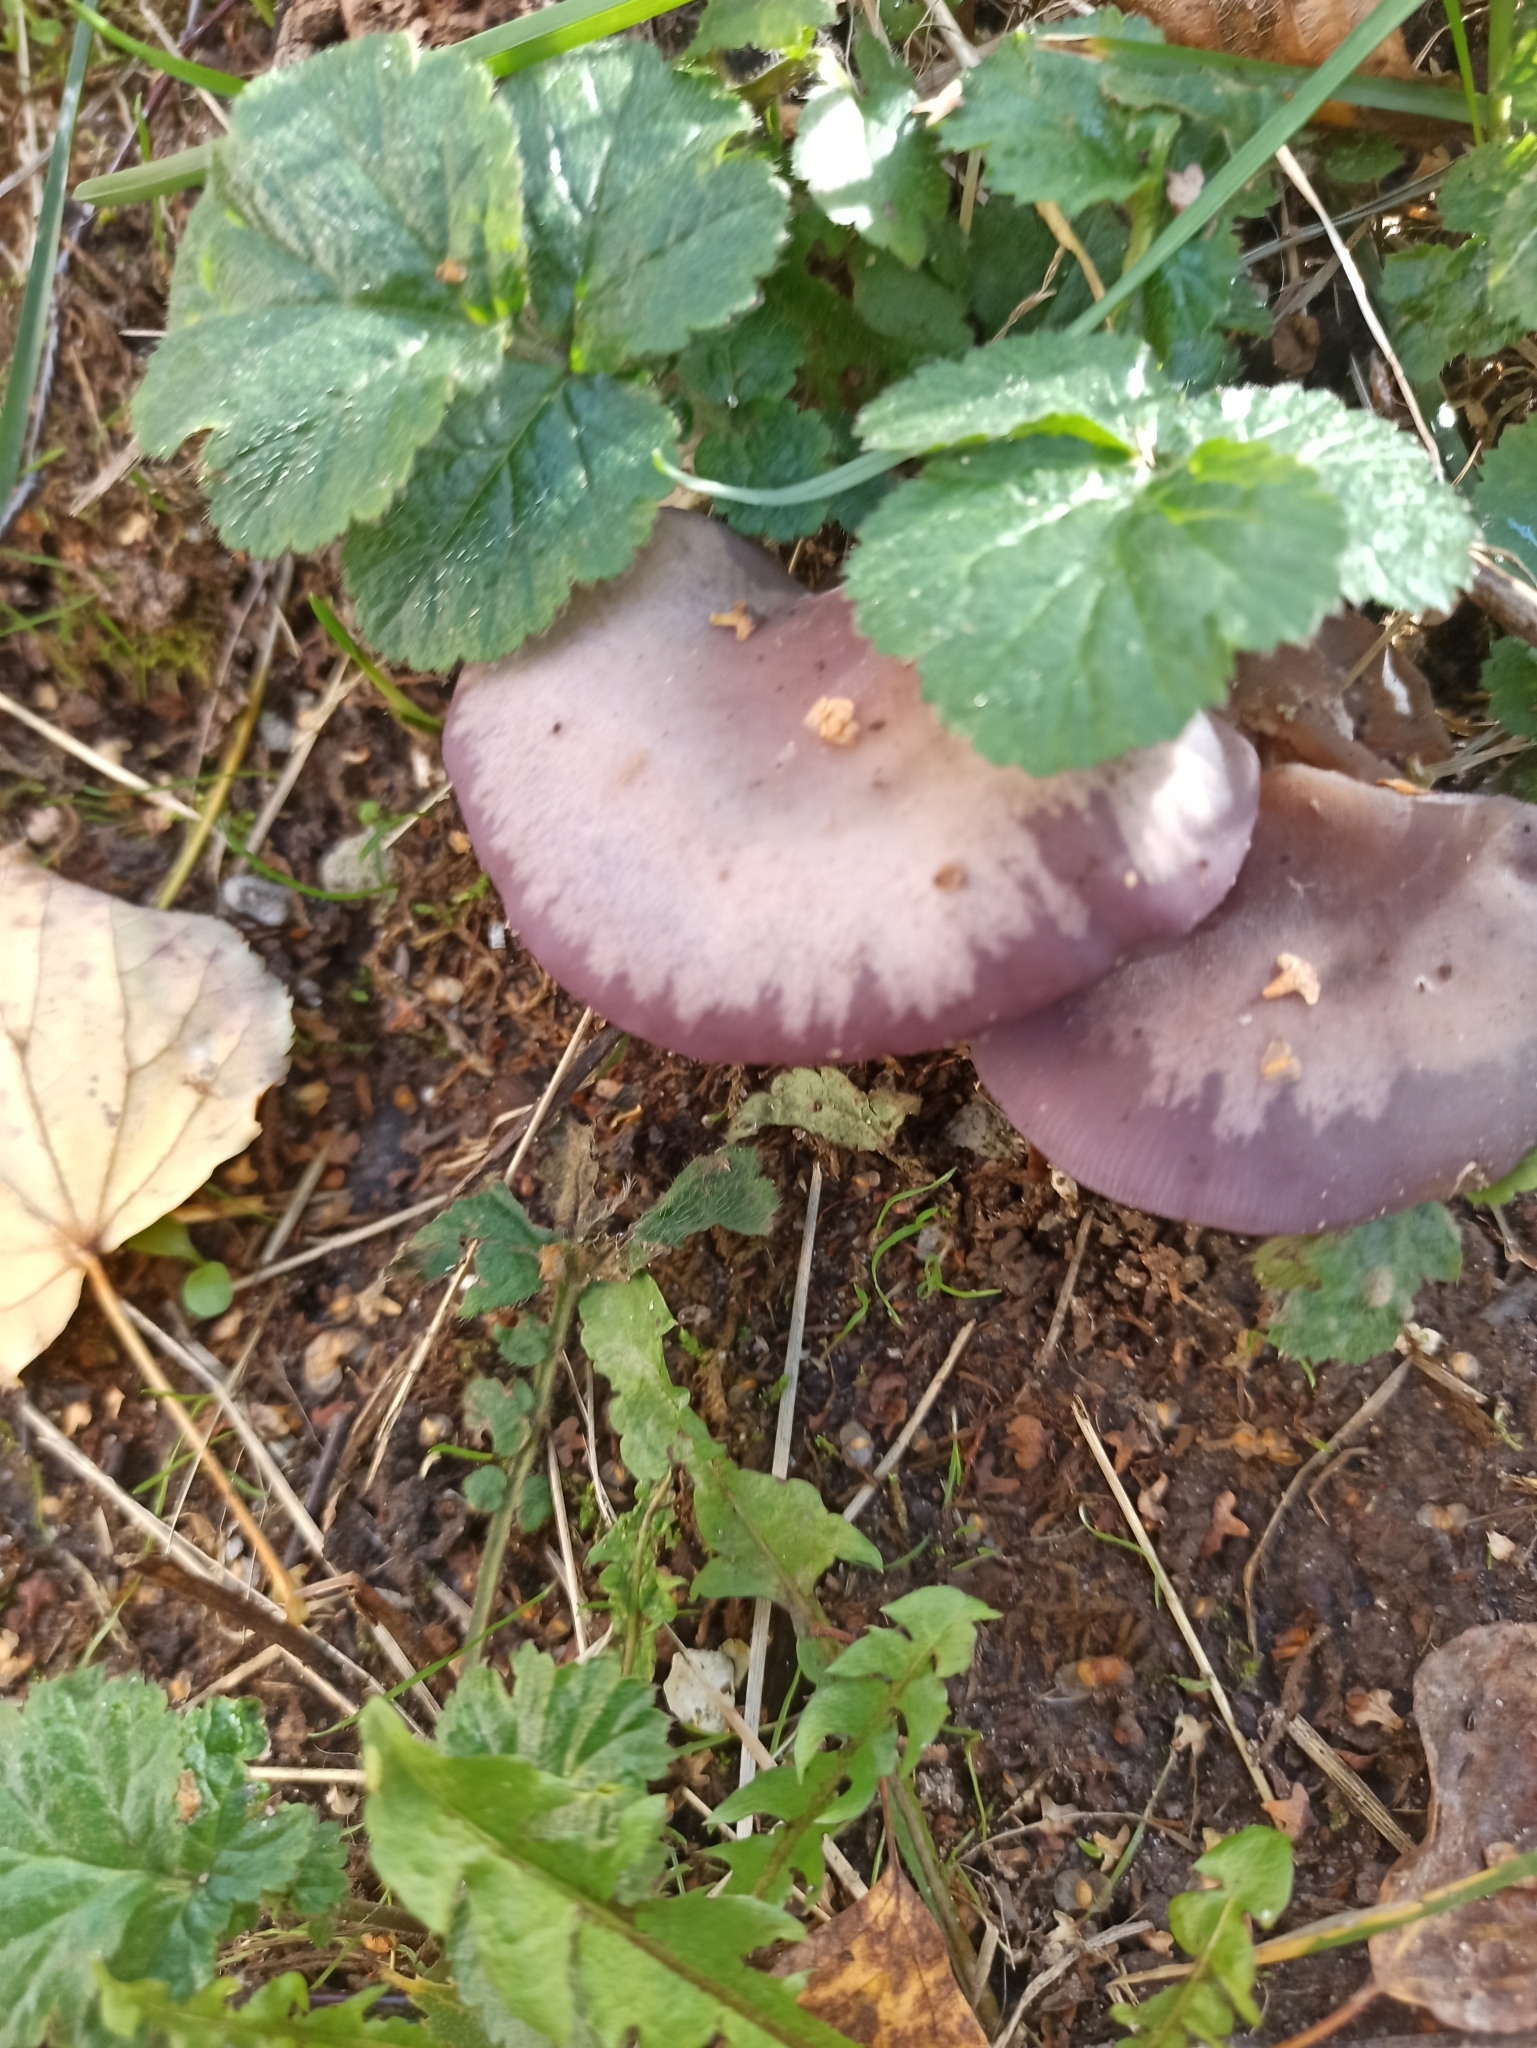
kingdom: Fungi
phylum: Basidiomycota
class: Agaricomycetes
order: Agaricales
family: Tricholomataceae
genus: Collybia
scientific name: Collybia
